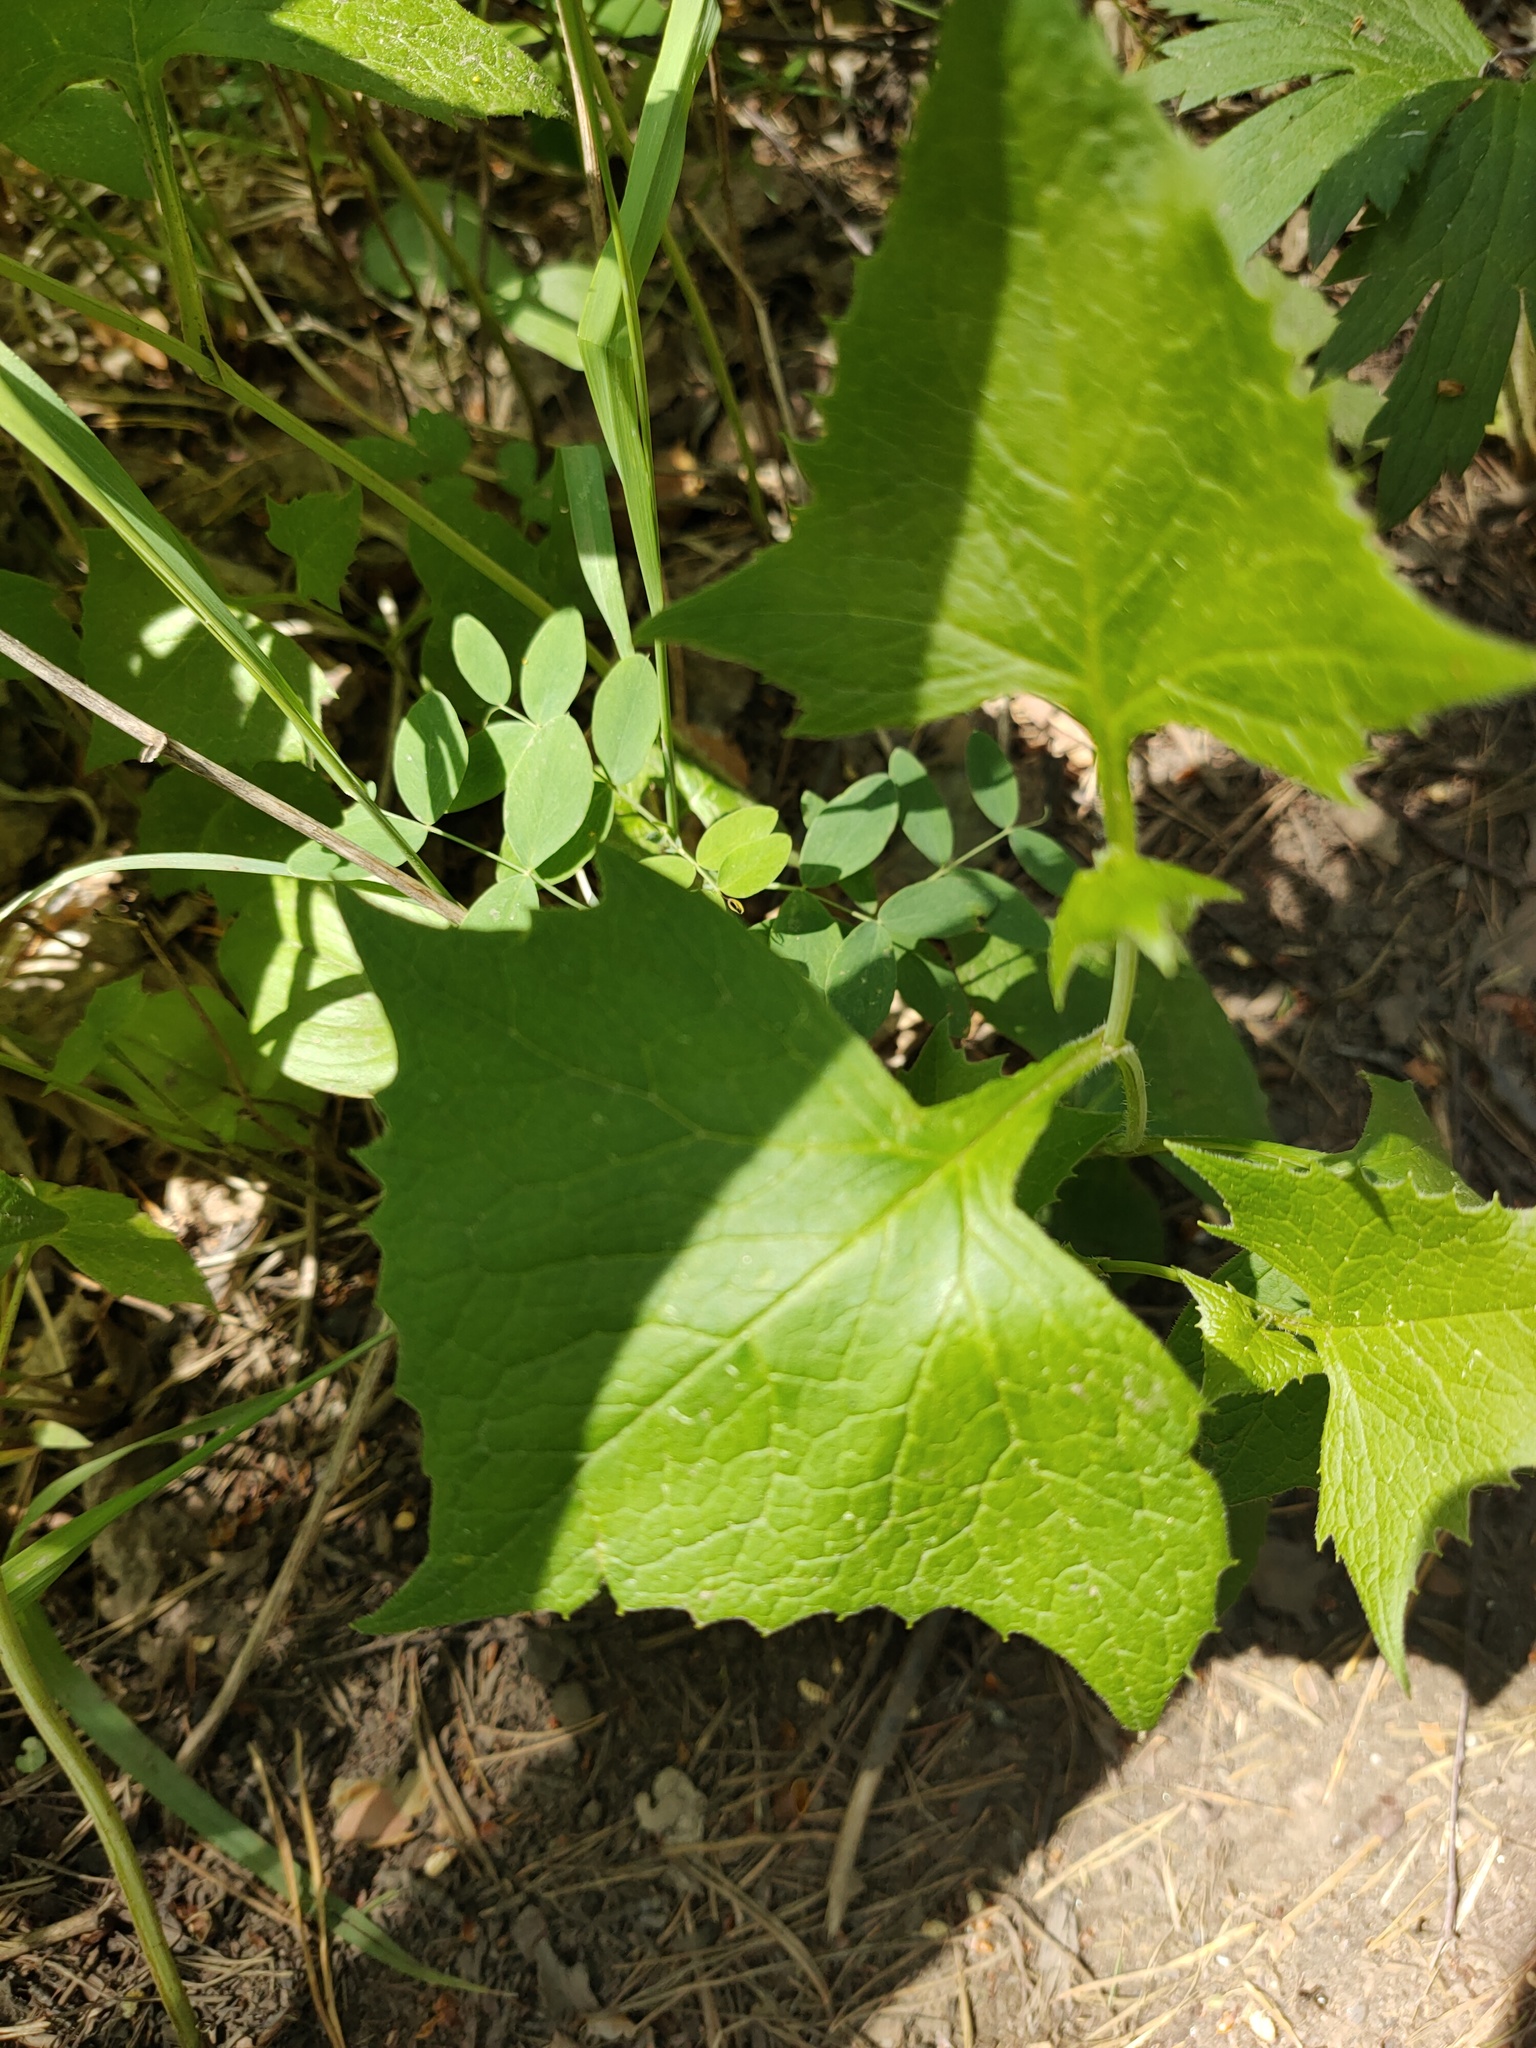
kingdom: Plantae
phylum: Tracheophyta
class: Magnoliopsida
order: Asterales
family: Asteraceae
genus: Parasenecio
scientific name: Parasenecio hastatus
